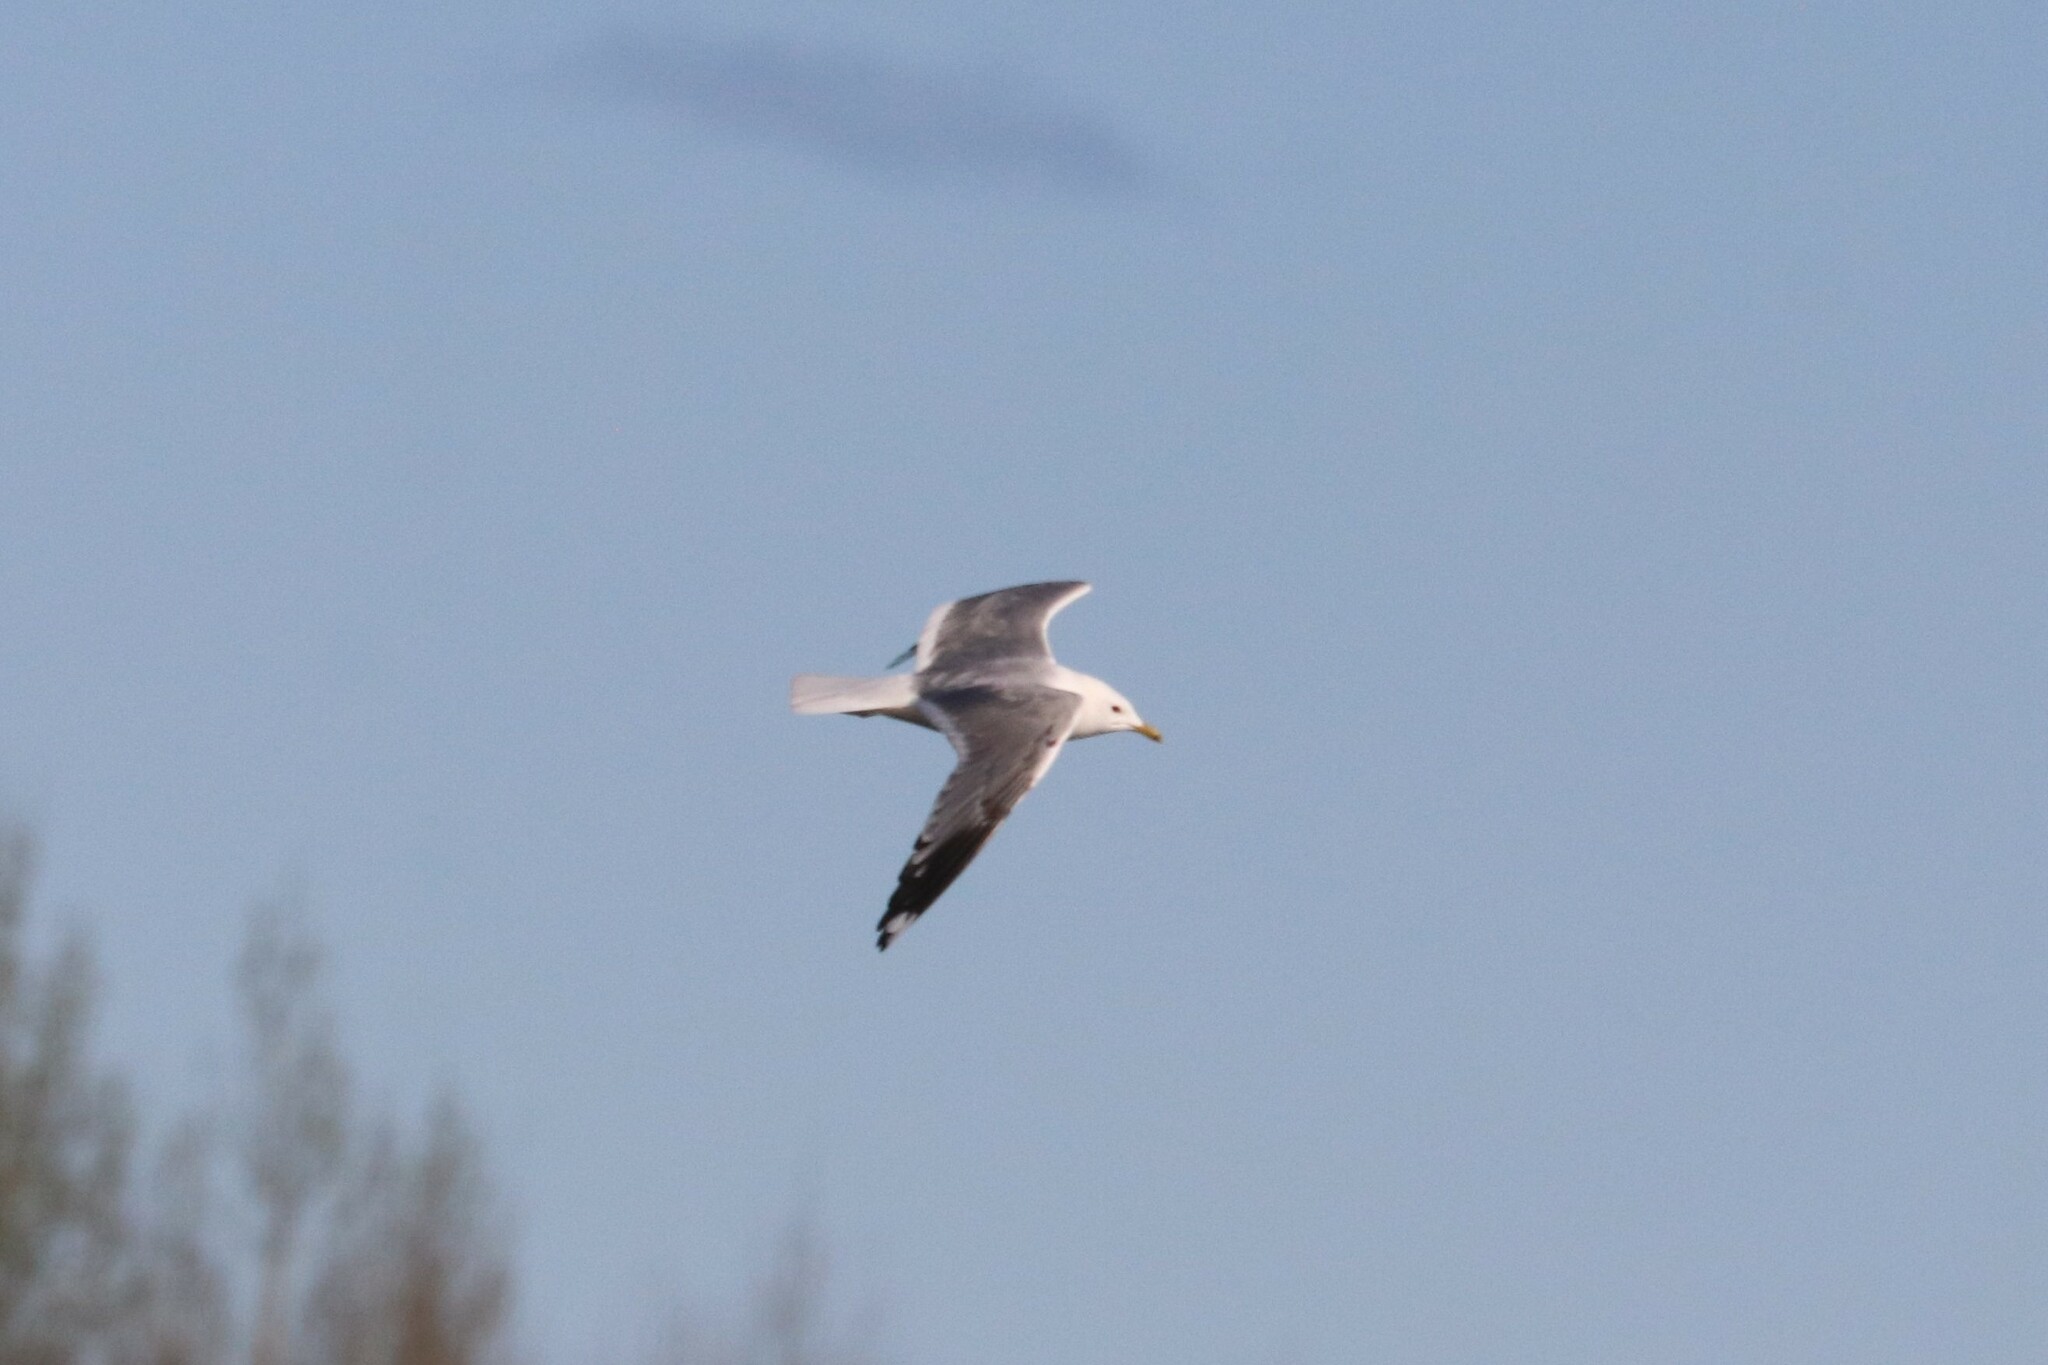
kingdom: Animalia
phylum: Chordata
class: Aves
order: Charadriiformes
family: Laridae
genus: Larus
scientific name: Larus canus
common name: Mew gull
